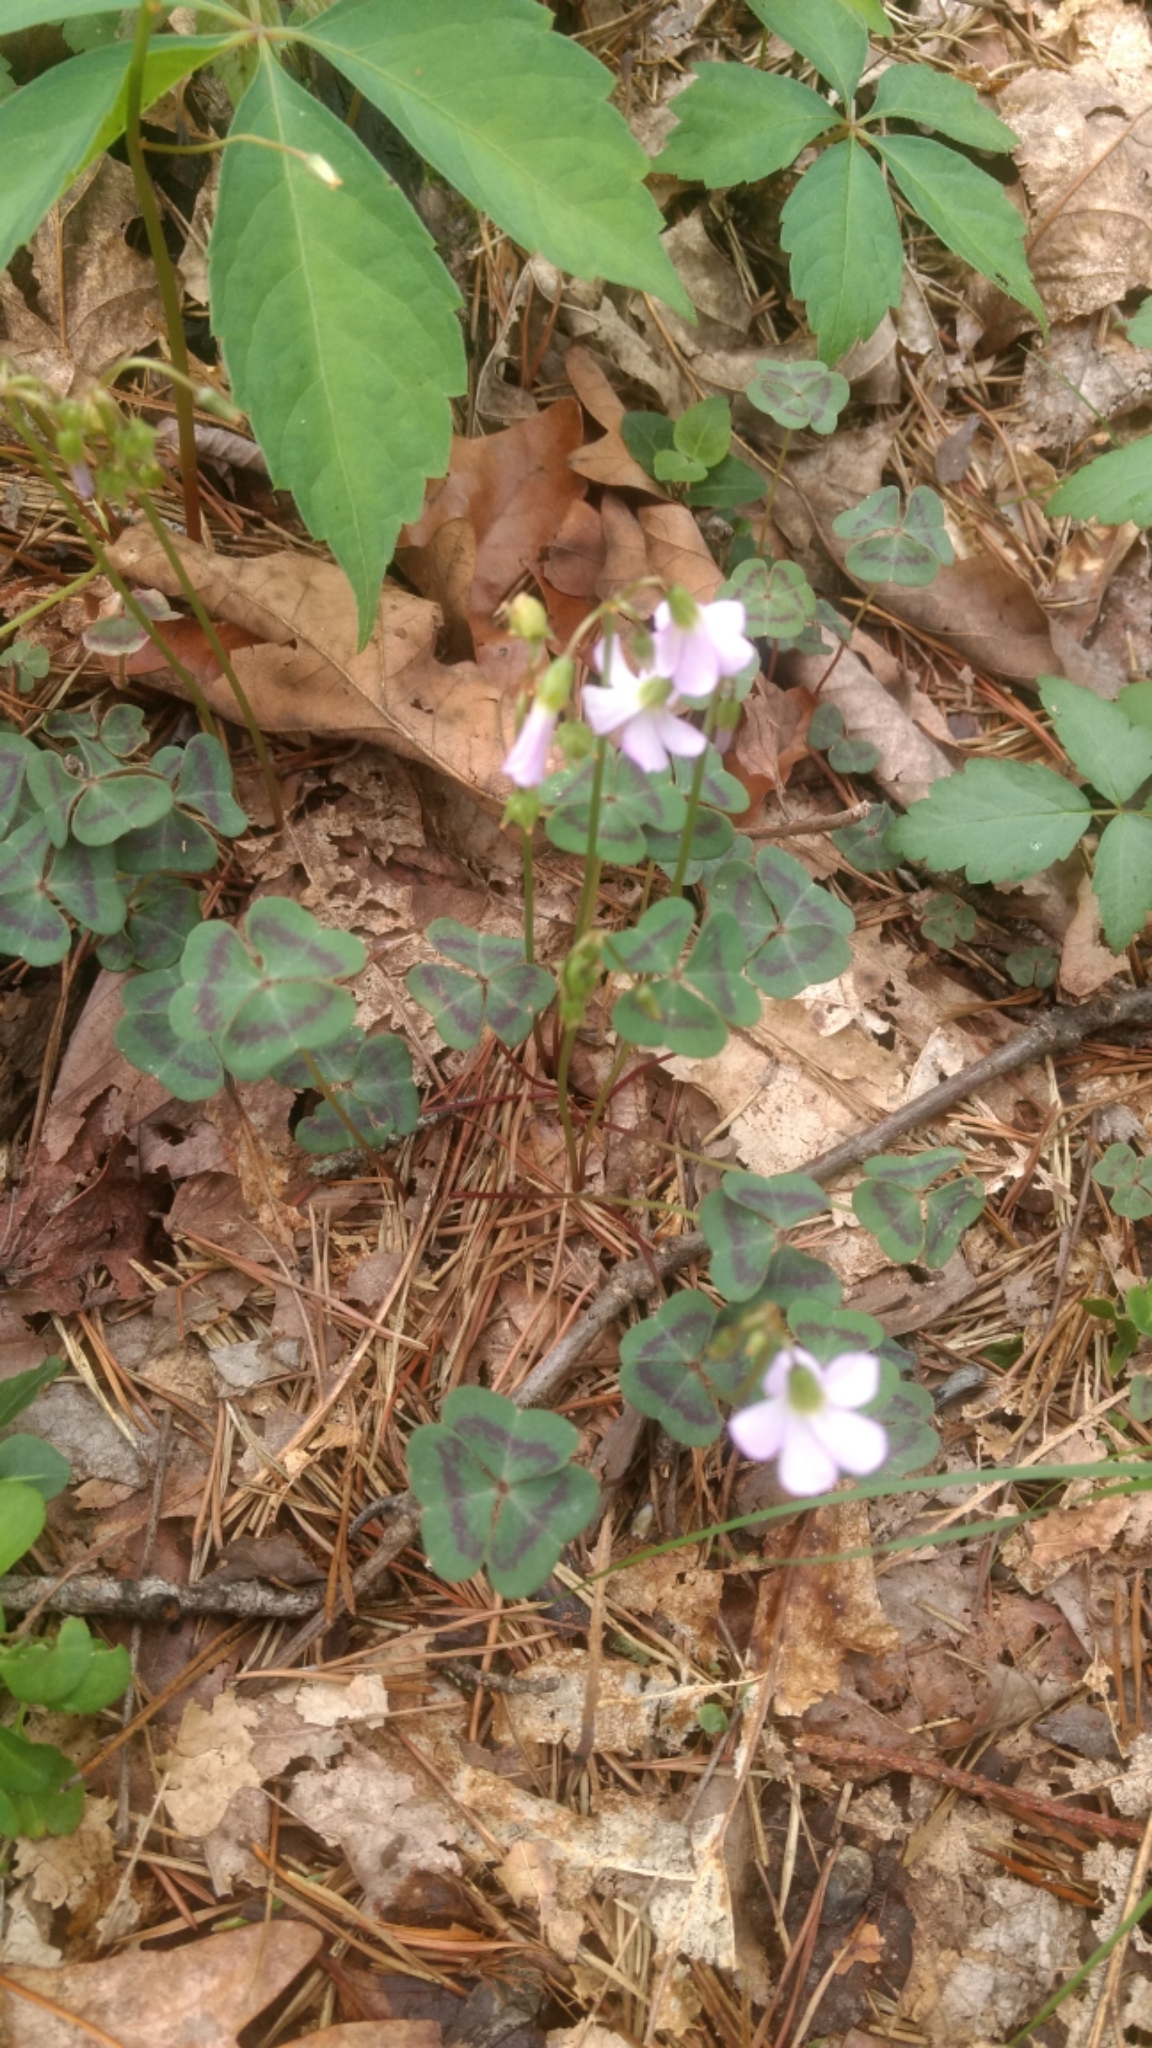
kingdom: Plantae
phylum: Tracheophyta
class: Magnoliopsida
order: Oxalidales
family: Oxalidaceae
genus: Oxalis
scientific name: Oxalis violacea
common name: Violet wood-sorrel
